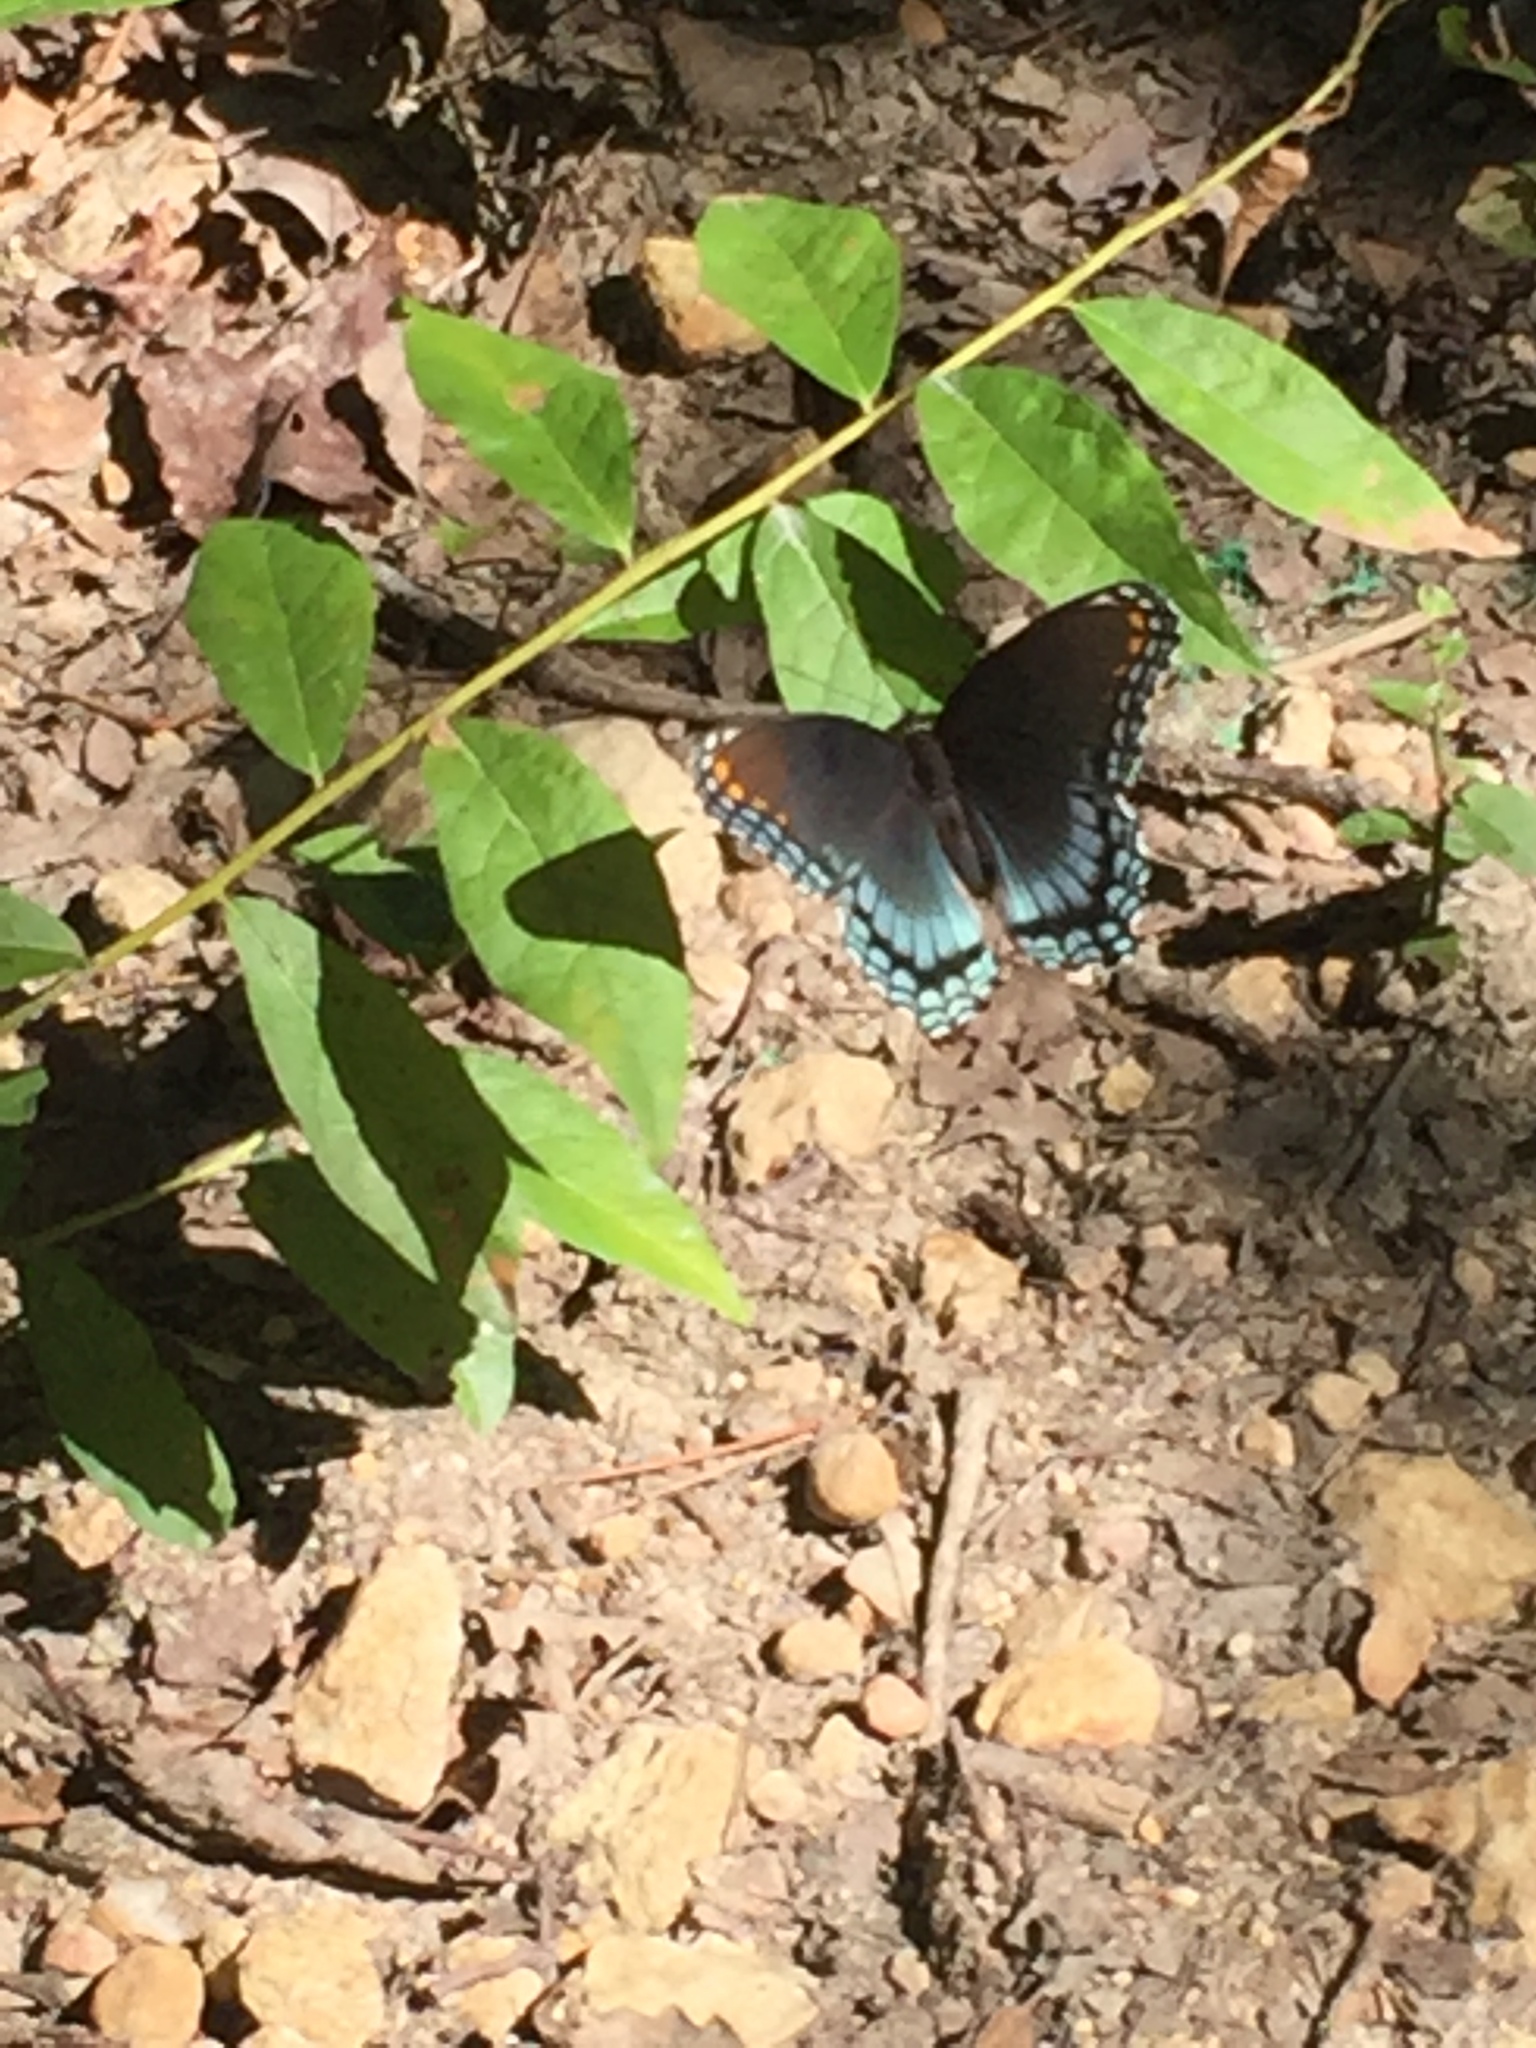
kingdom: Animalia
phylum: Arthropoda
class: Insecta
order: Lepidoptera
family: Nymphalidae
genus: Limenitis
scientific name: Limenitis astyanax
